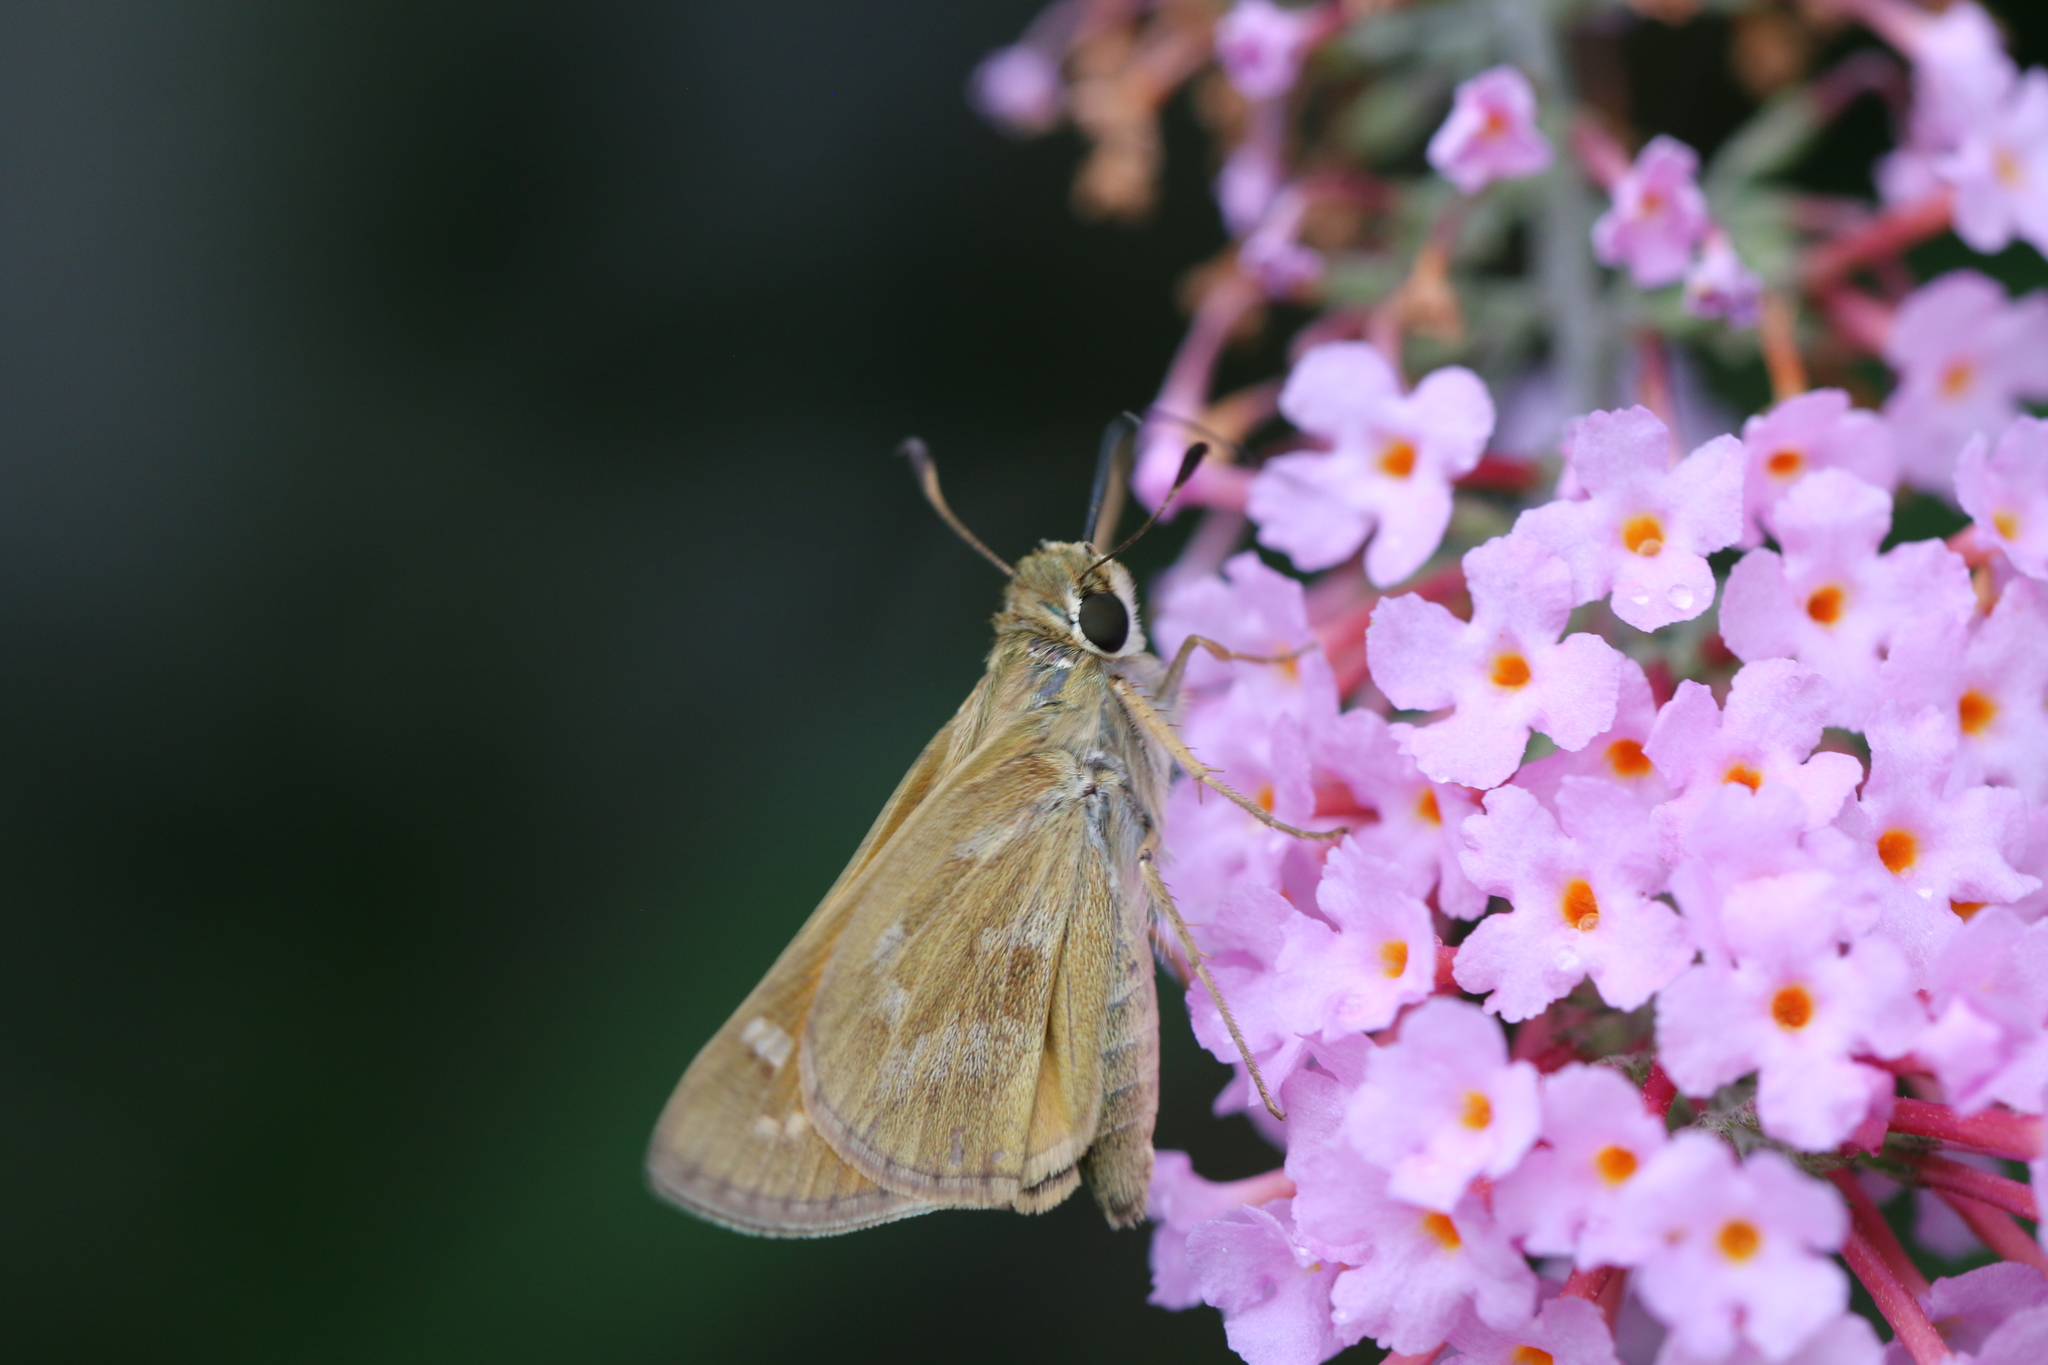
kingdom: Animalia
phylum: Arthropoda
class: Insecta
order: Lepidoptera
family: Hesperiidae
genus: Atalopedes
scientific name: Atalopedes
